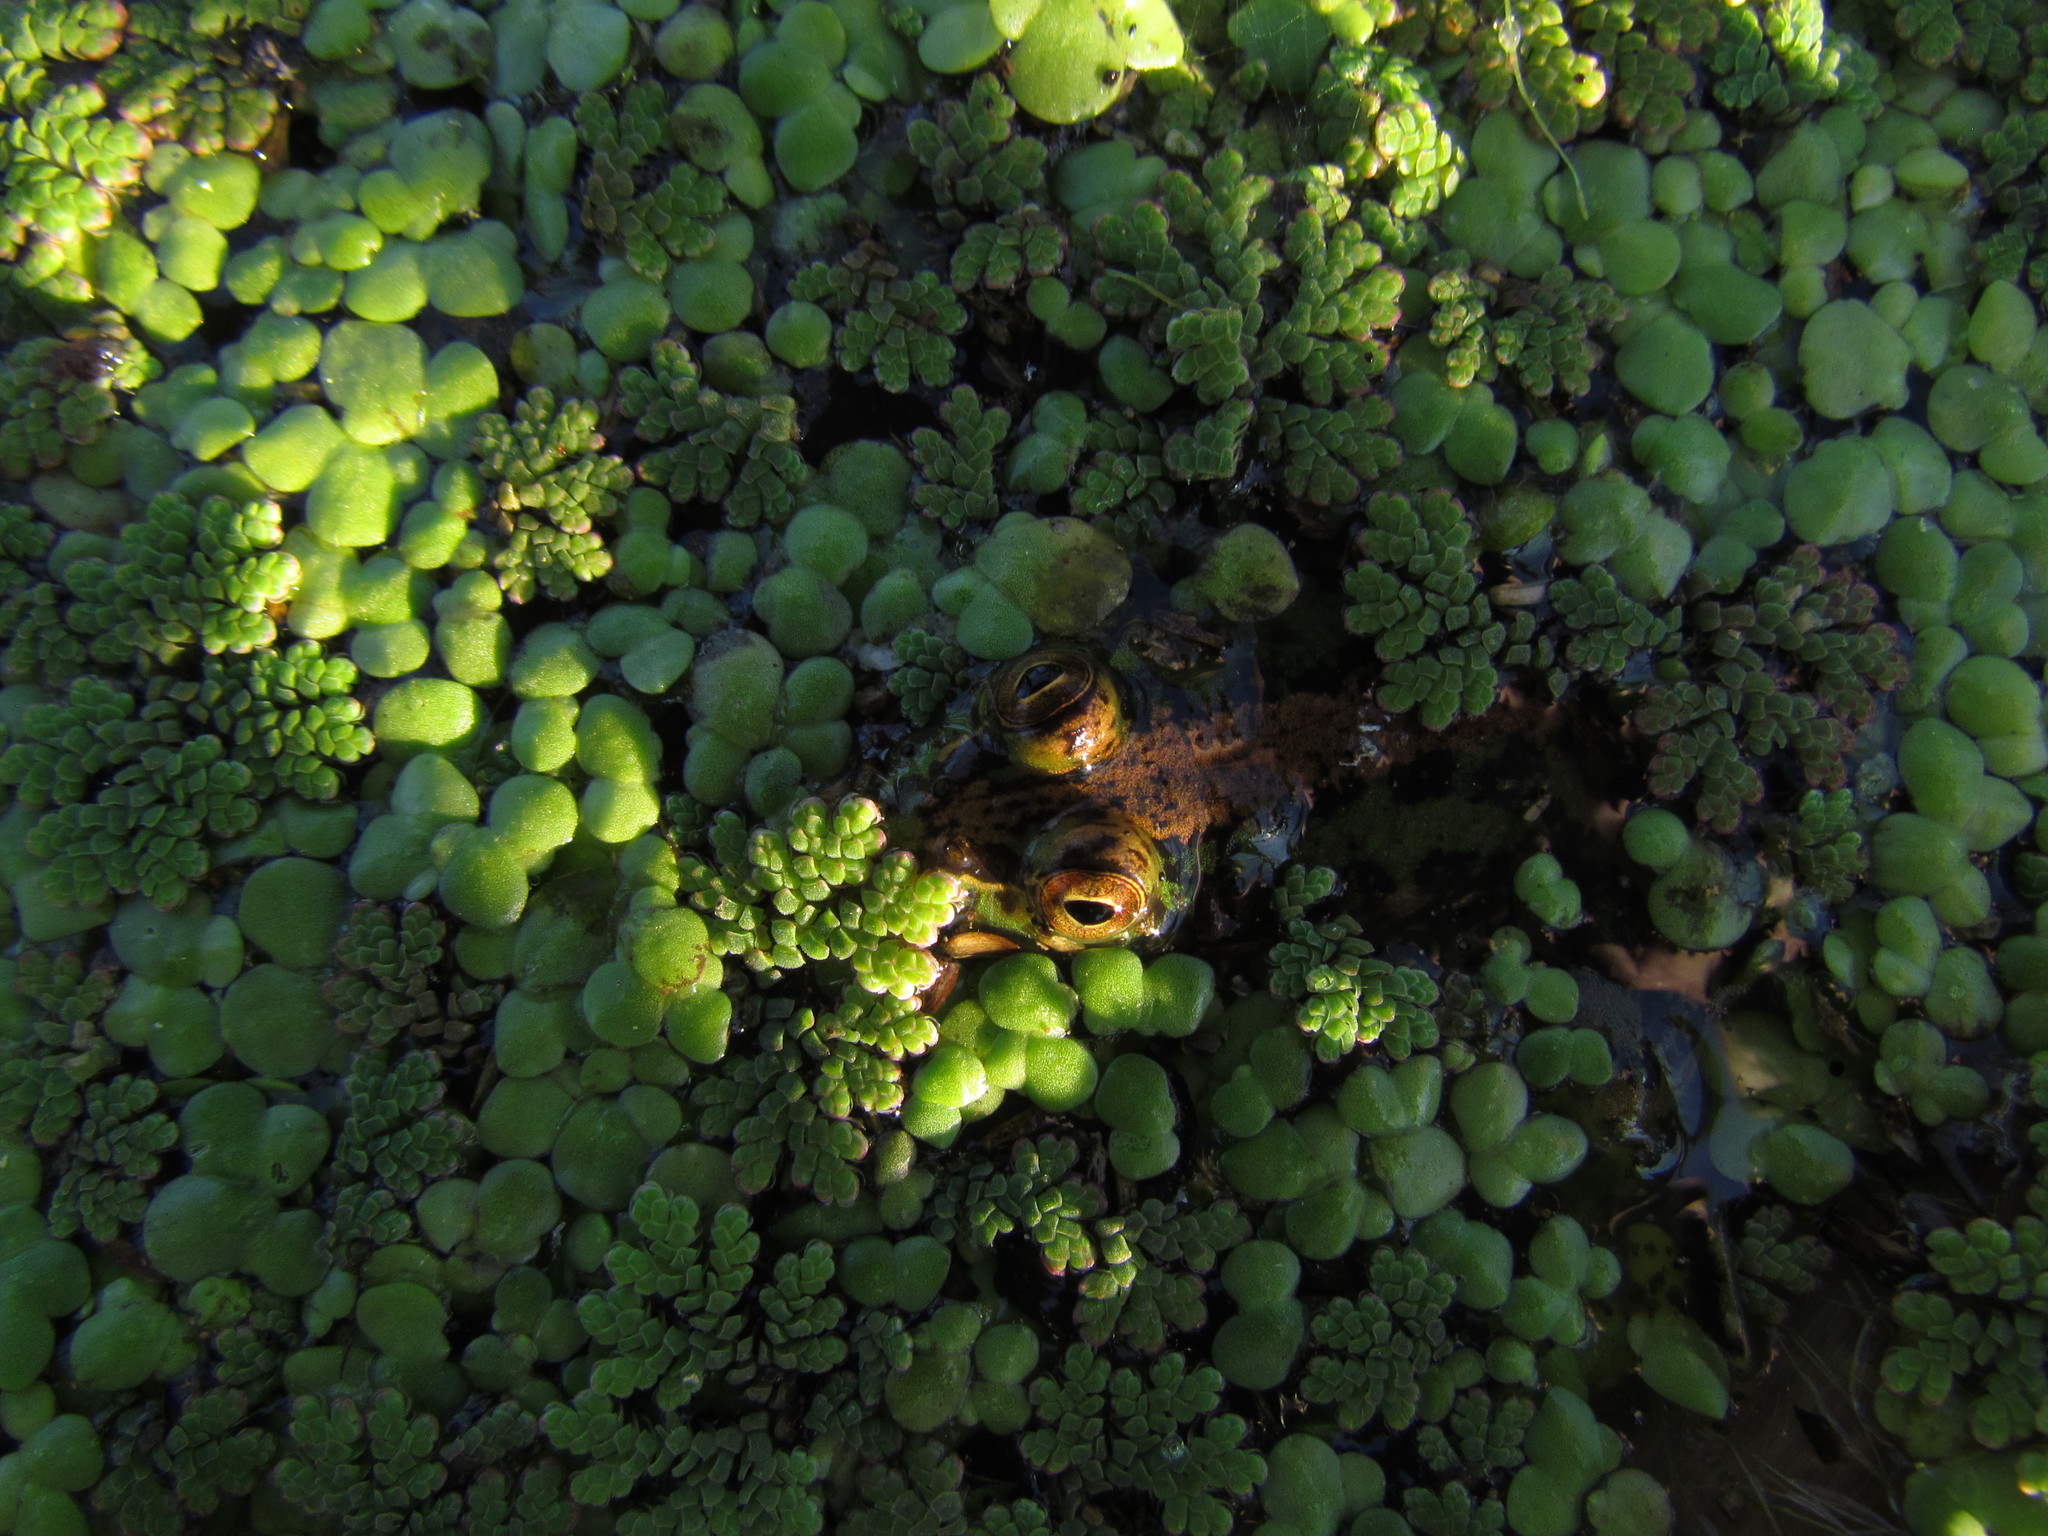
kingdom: Animalia
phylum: Chordata
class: Amphibia
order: Anura
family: Hylidae
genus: Pseudis
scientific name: Pseudis minuta
